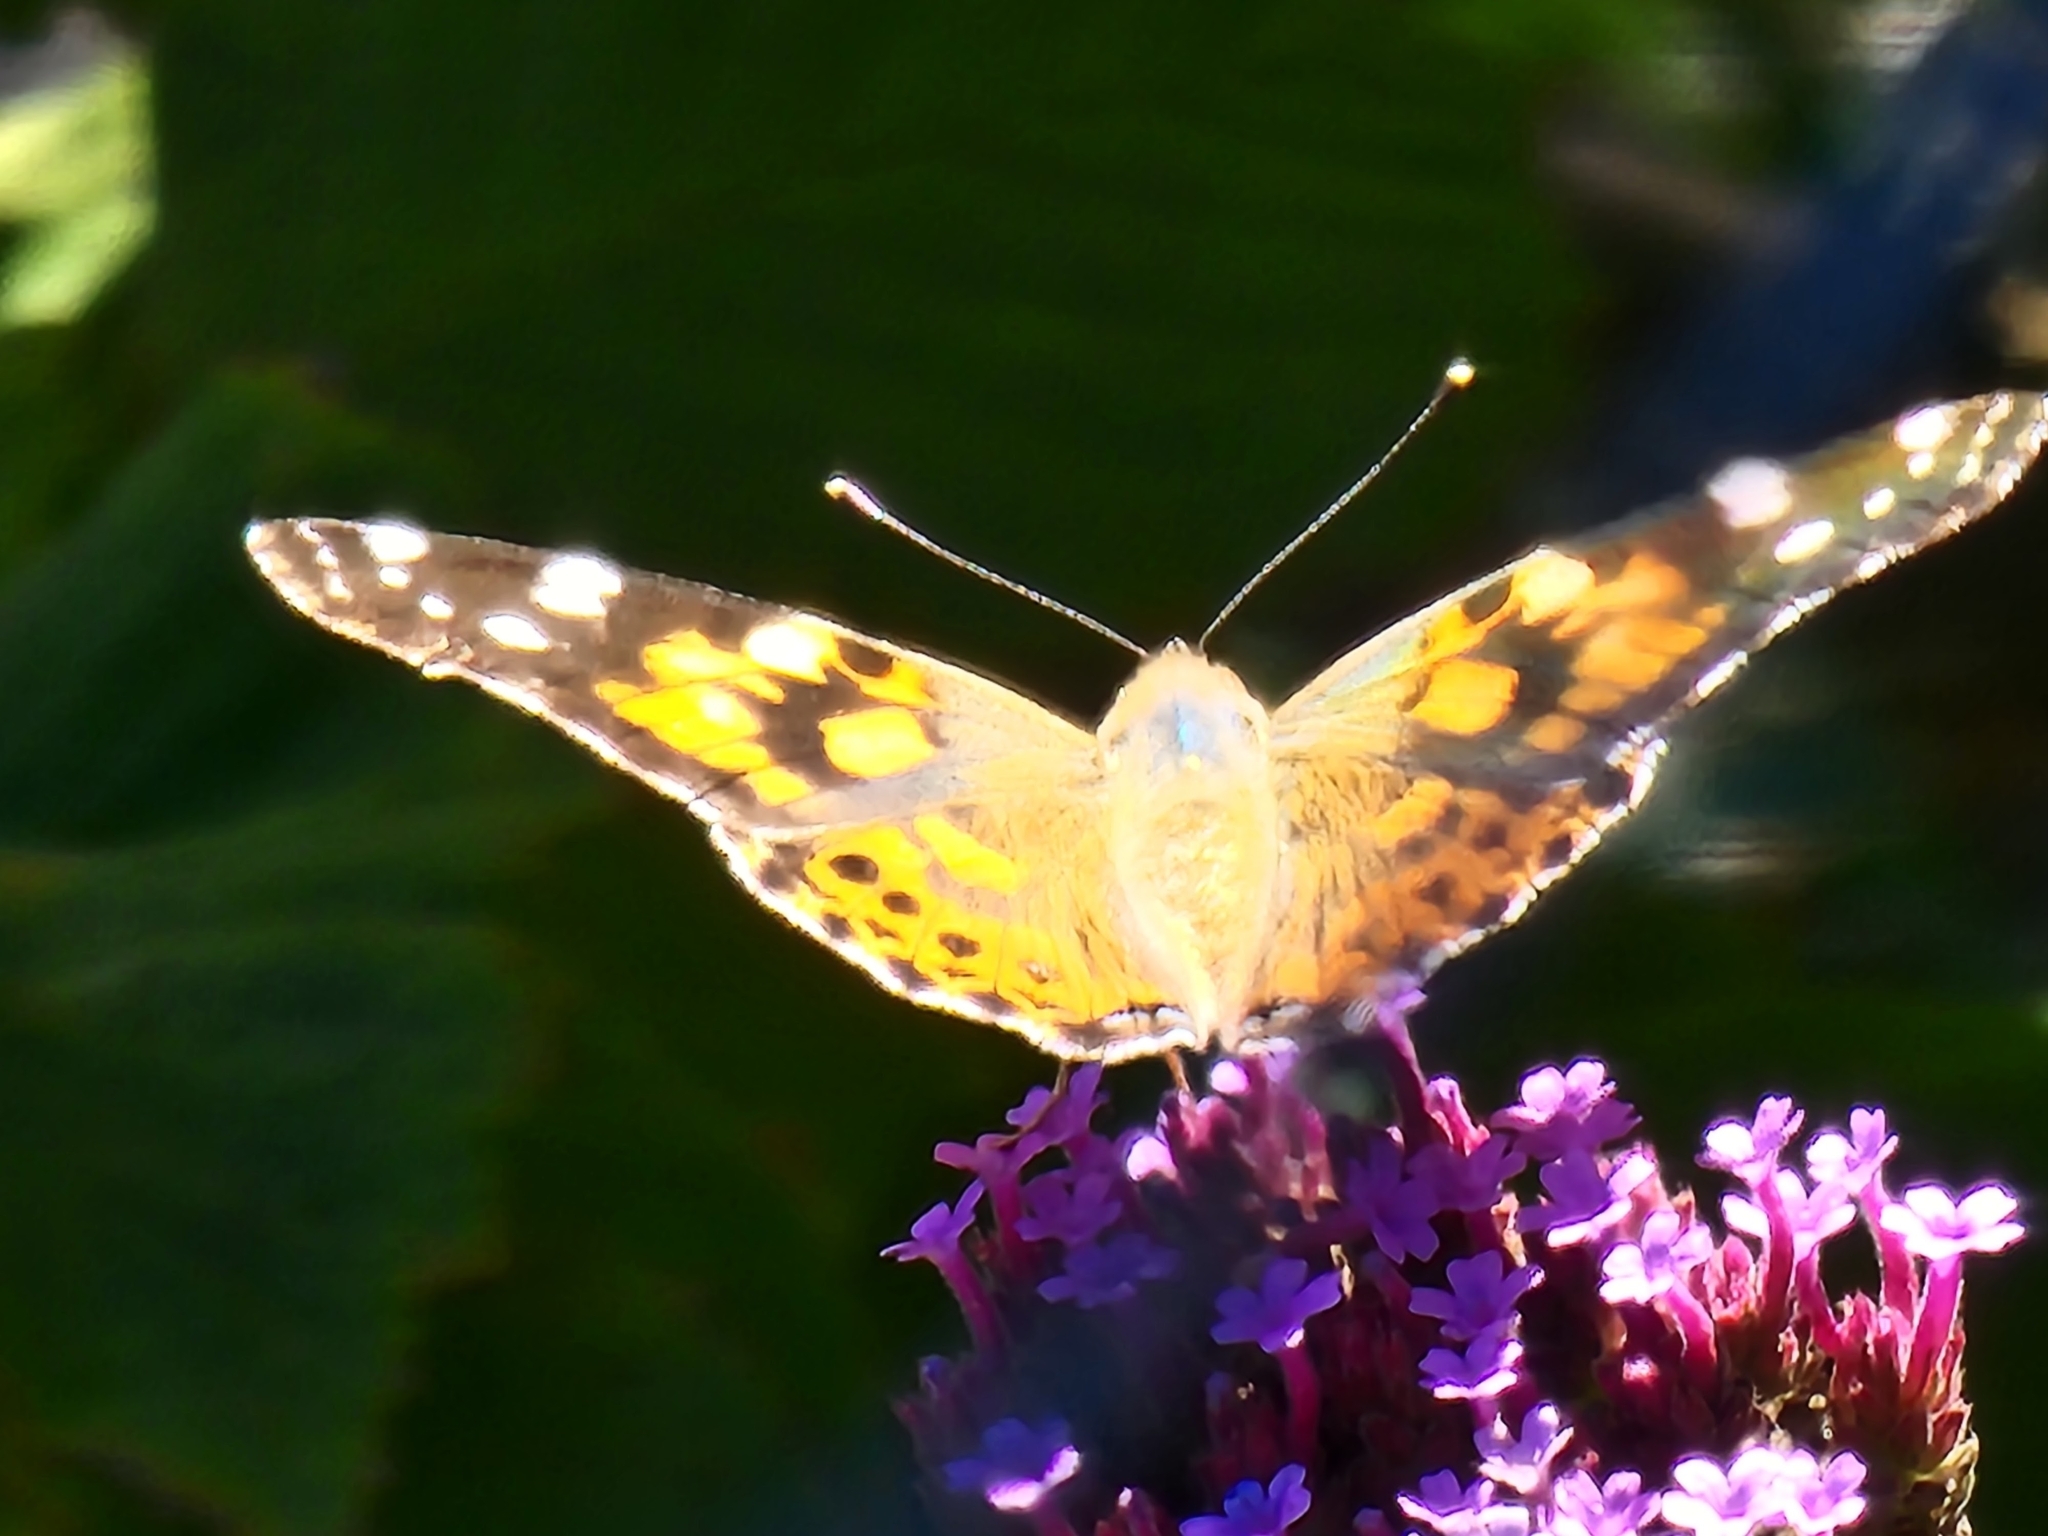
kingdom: Animalia
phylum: Arthropoda
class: Insecta
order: Lepidoptera
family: Nymphalidae
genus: Vanessa
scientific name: Vanessa cardui
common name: Painted lady
